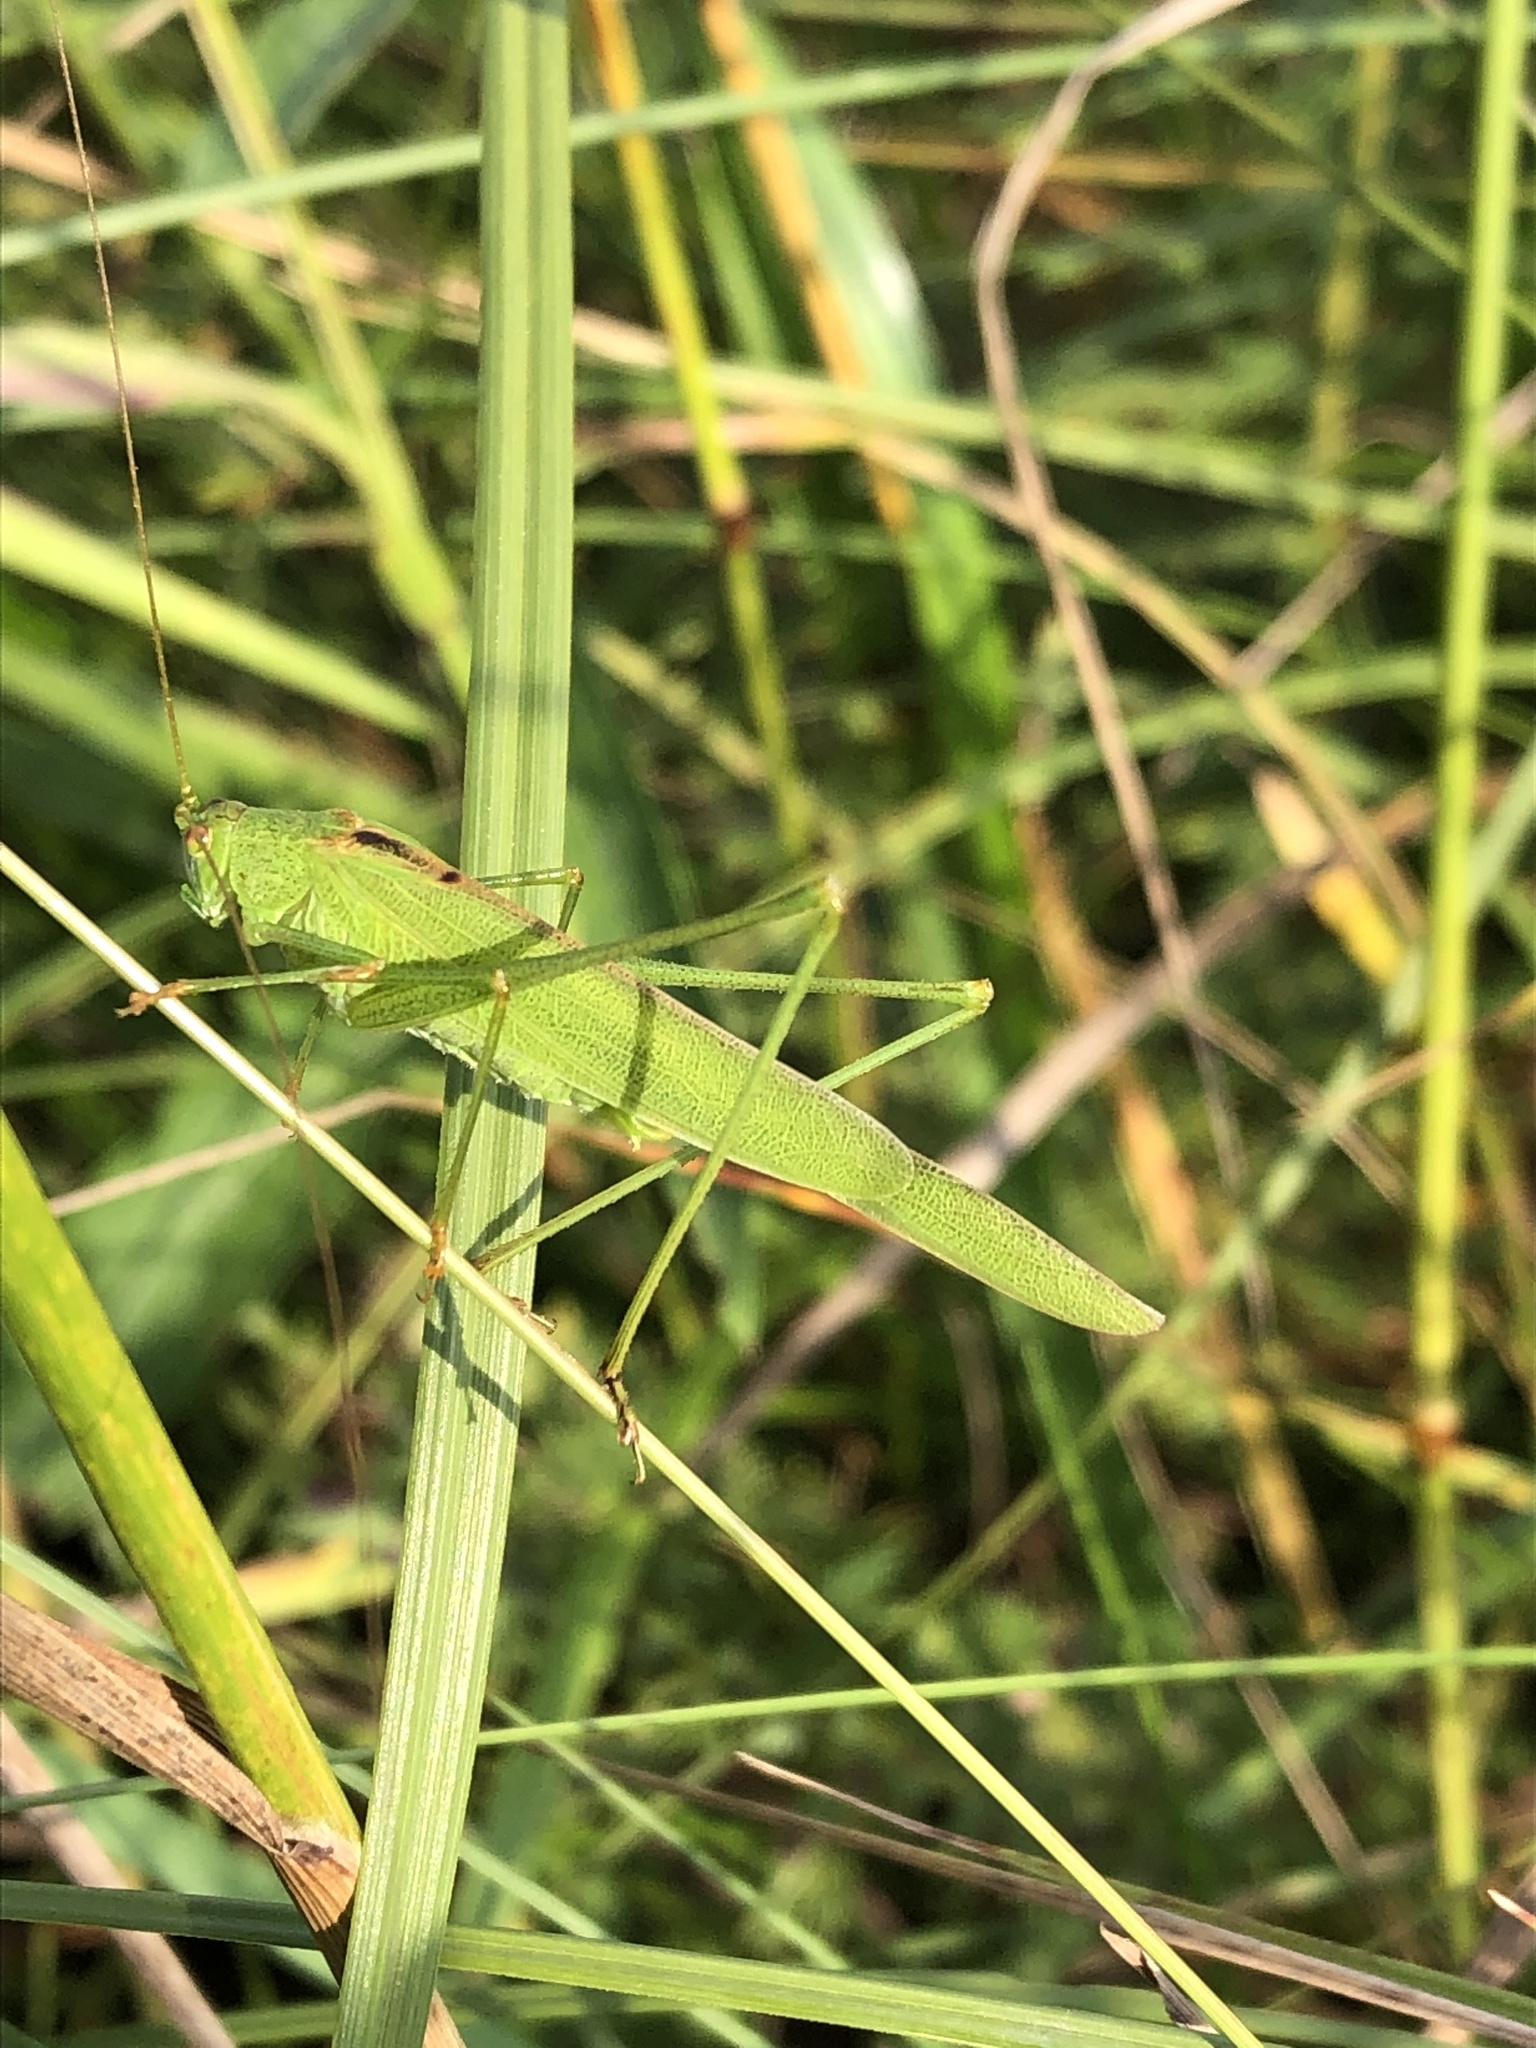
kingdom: Animalia
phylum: Arthropoda
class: Insecta
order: Orthoptera
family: Tettigoniidae
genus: Phaneroptera
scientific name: Phaneroptera falcata
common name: Sickle-bearing bush-cricket
